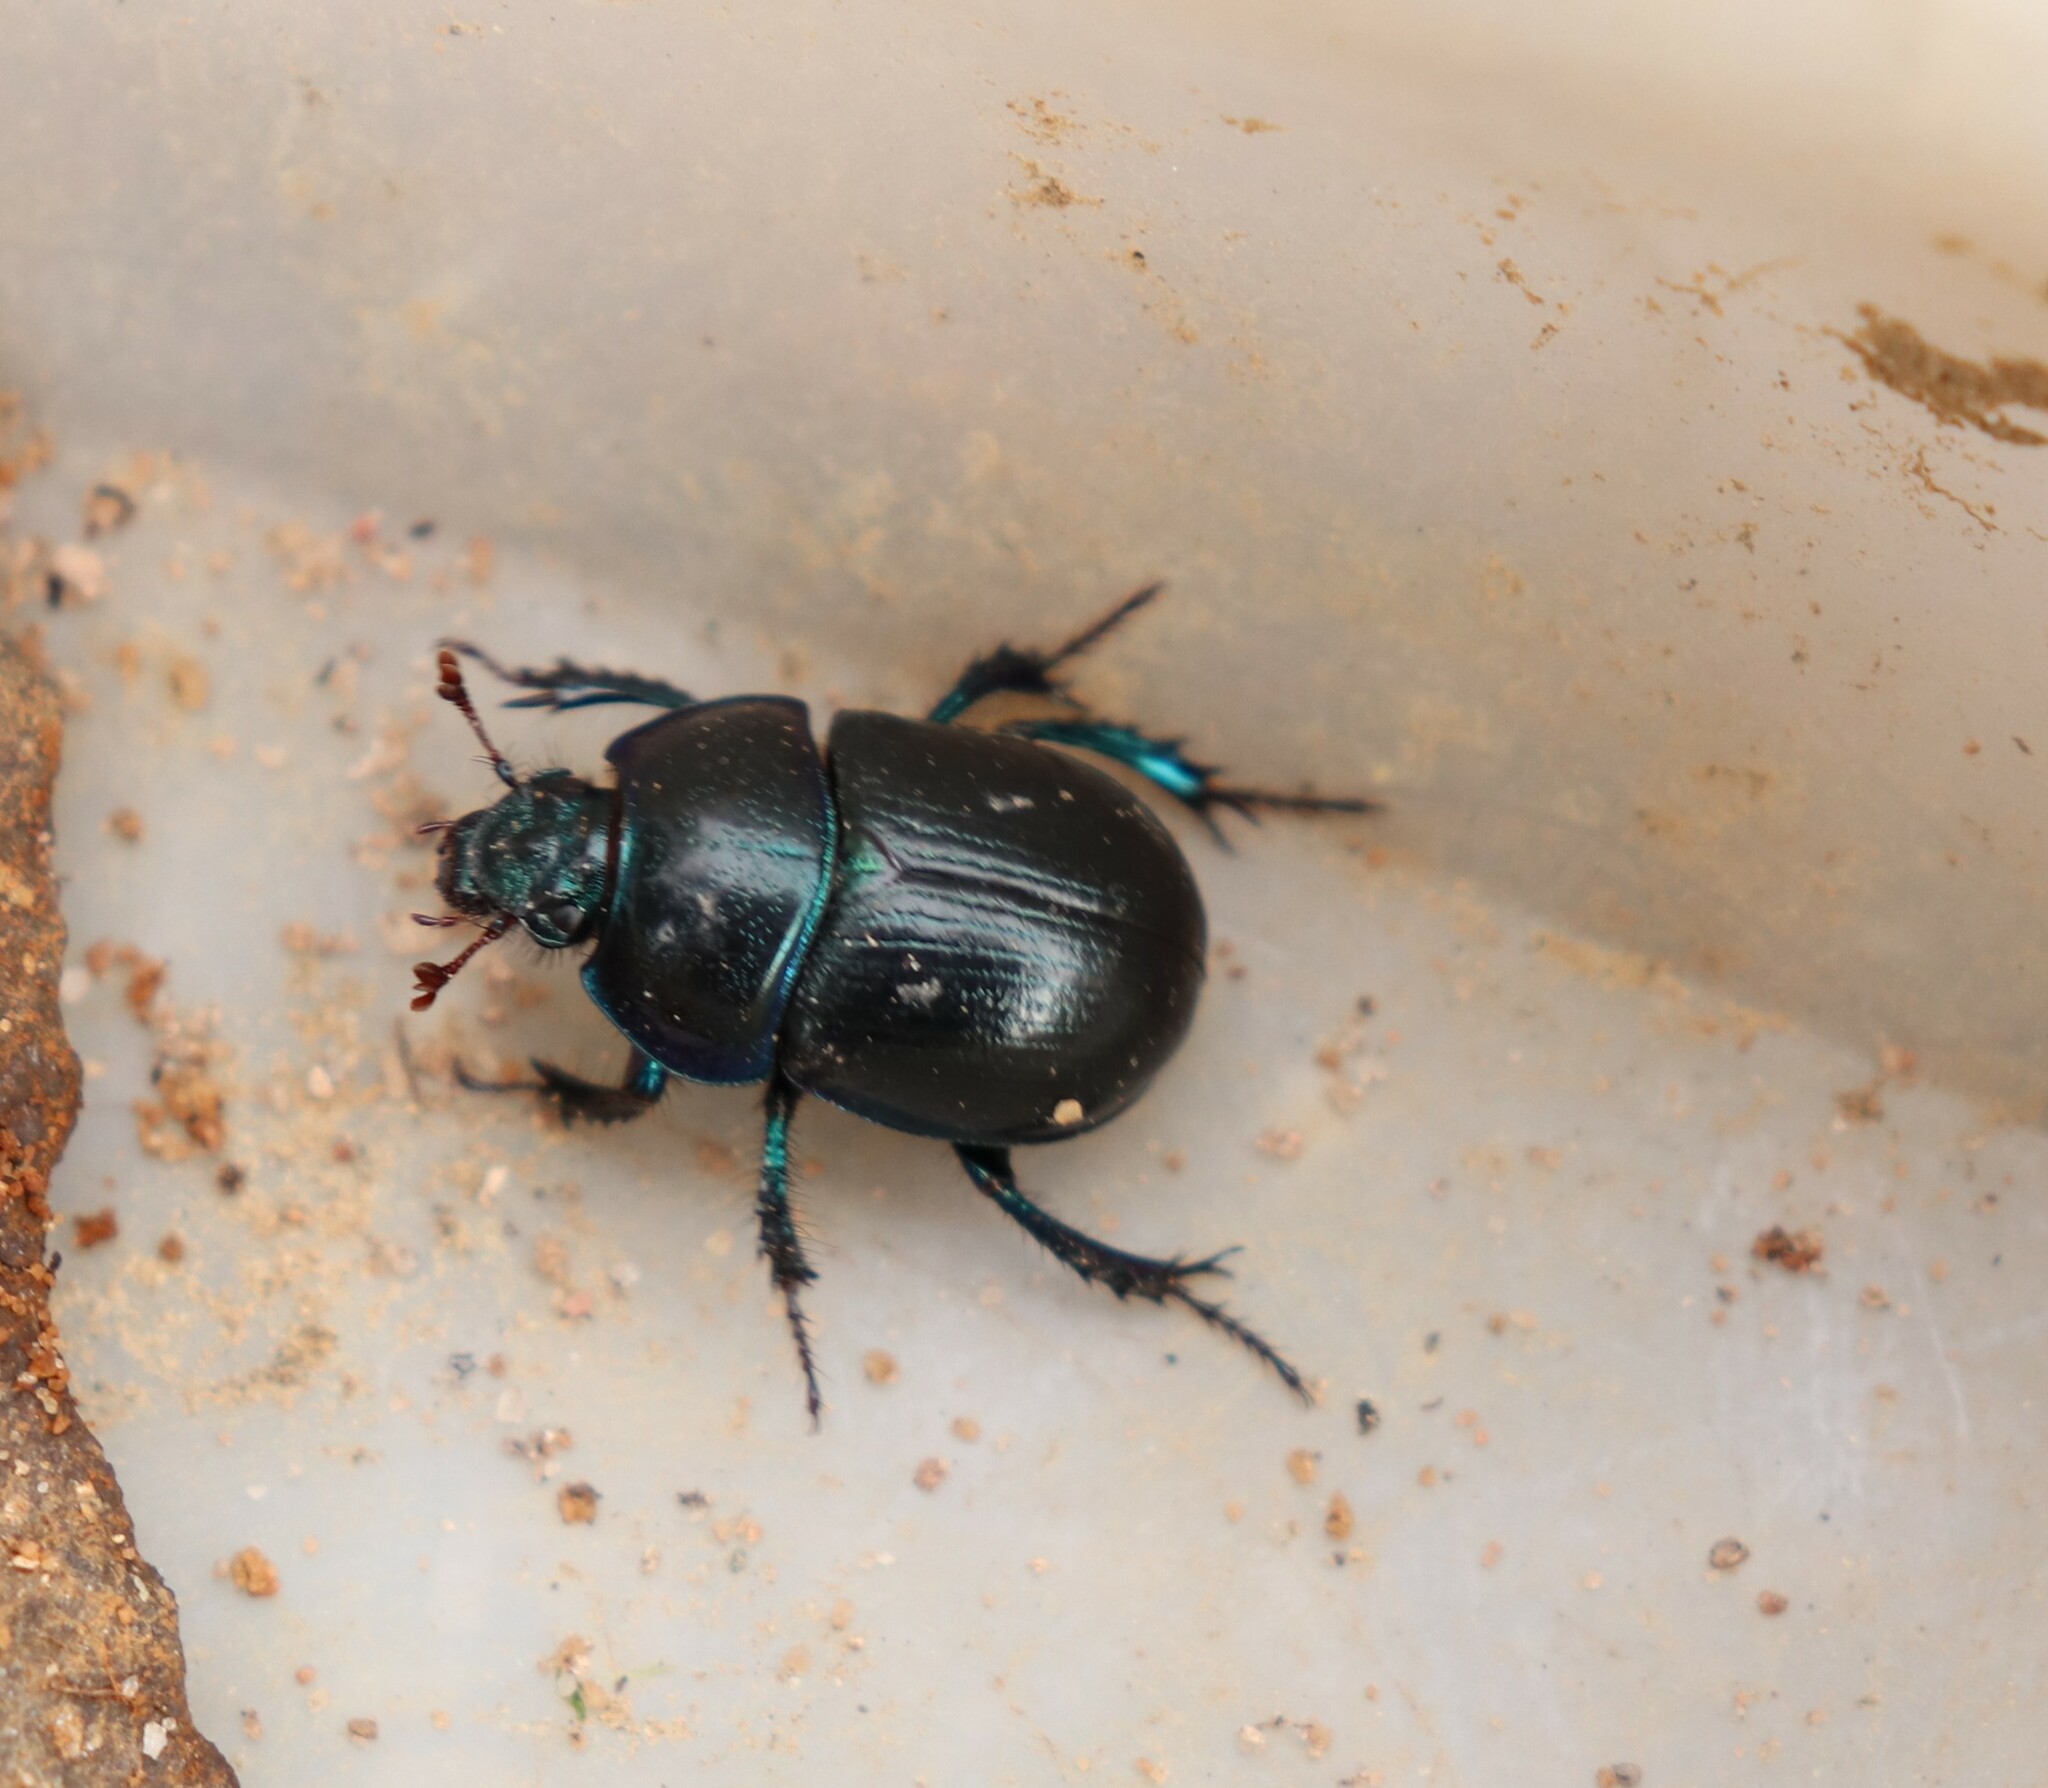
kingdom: Animalia
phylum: Arthropoda
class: Insecta
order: Coleoptera
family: Geotrupidae
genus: Anoplotrupes
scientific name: Anoplotrupes stercorosus
